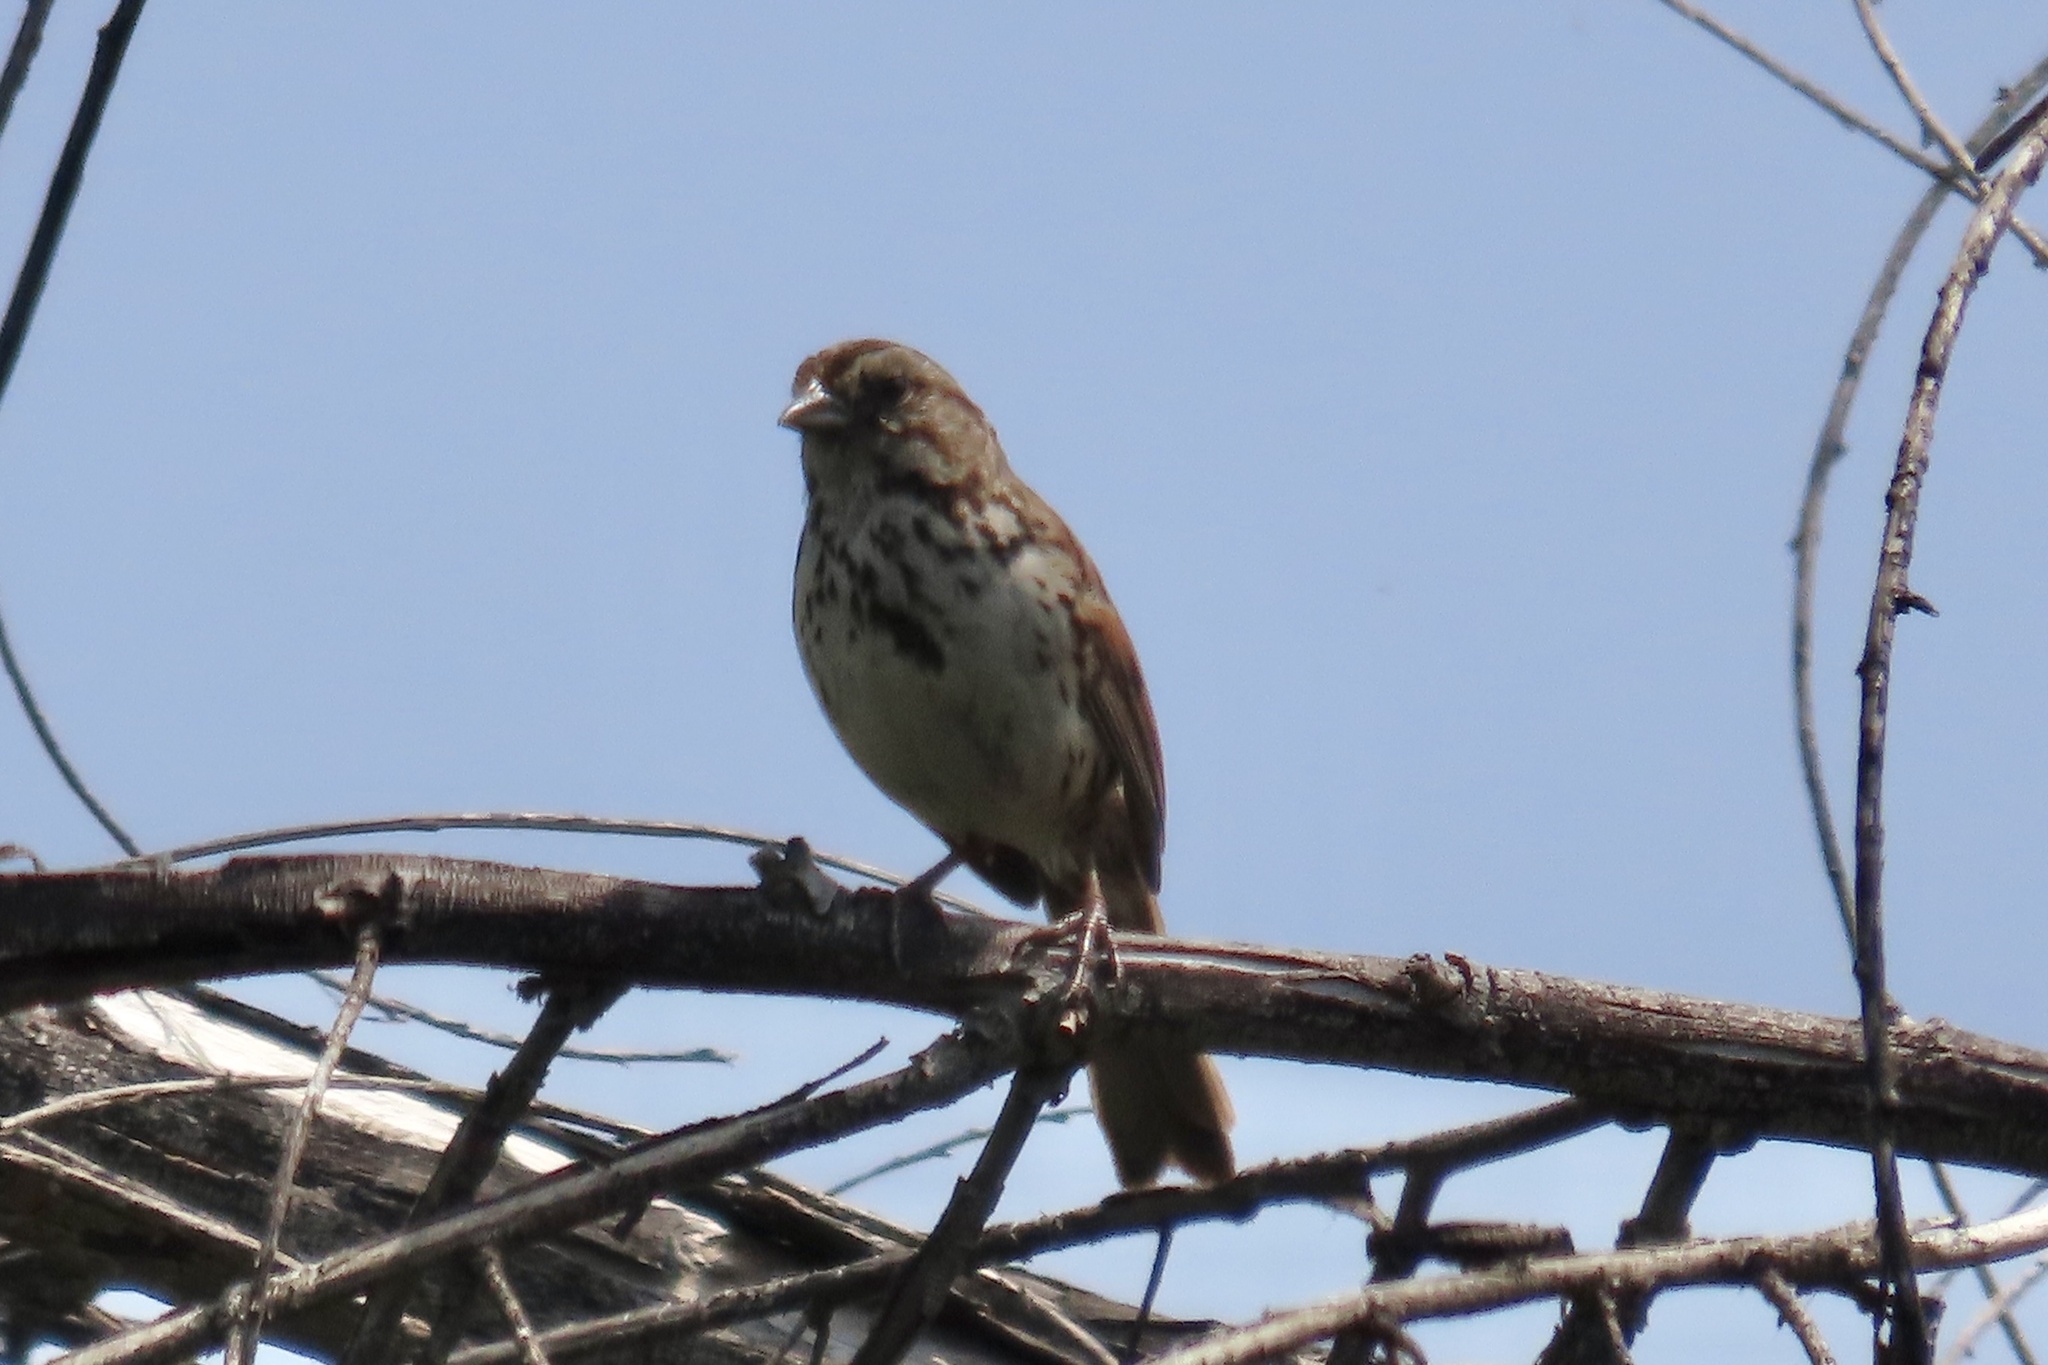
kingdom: Animalia
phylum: Chordata
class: Aves
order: Passeriformes
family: Passerellidae
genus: Melospiza
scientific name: Melospiza melodia
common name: Song sparrow
